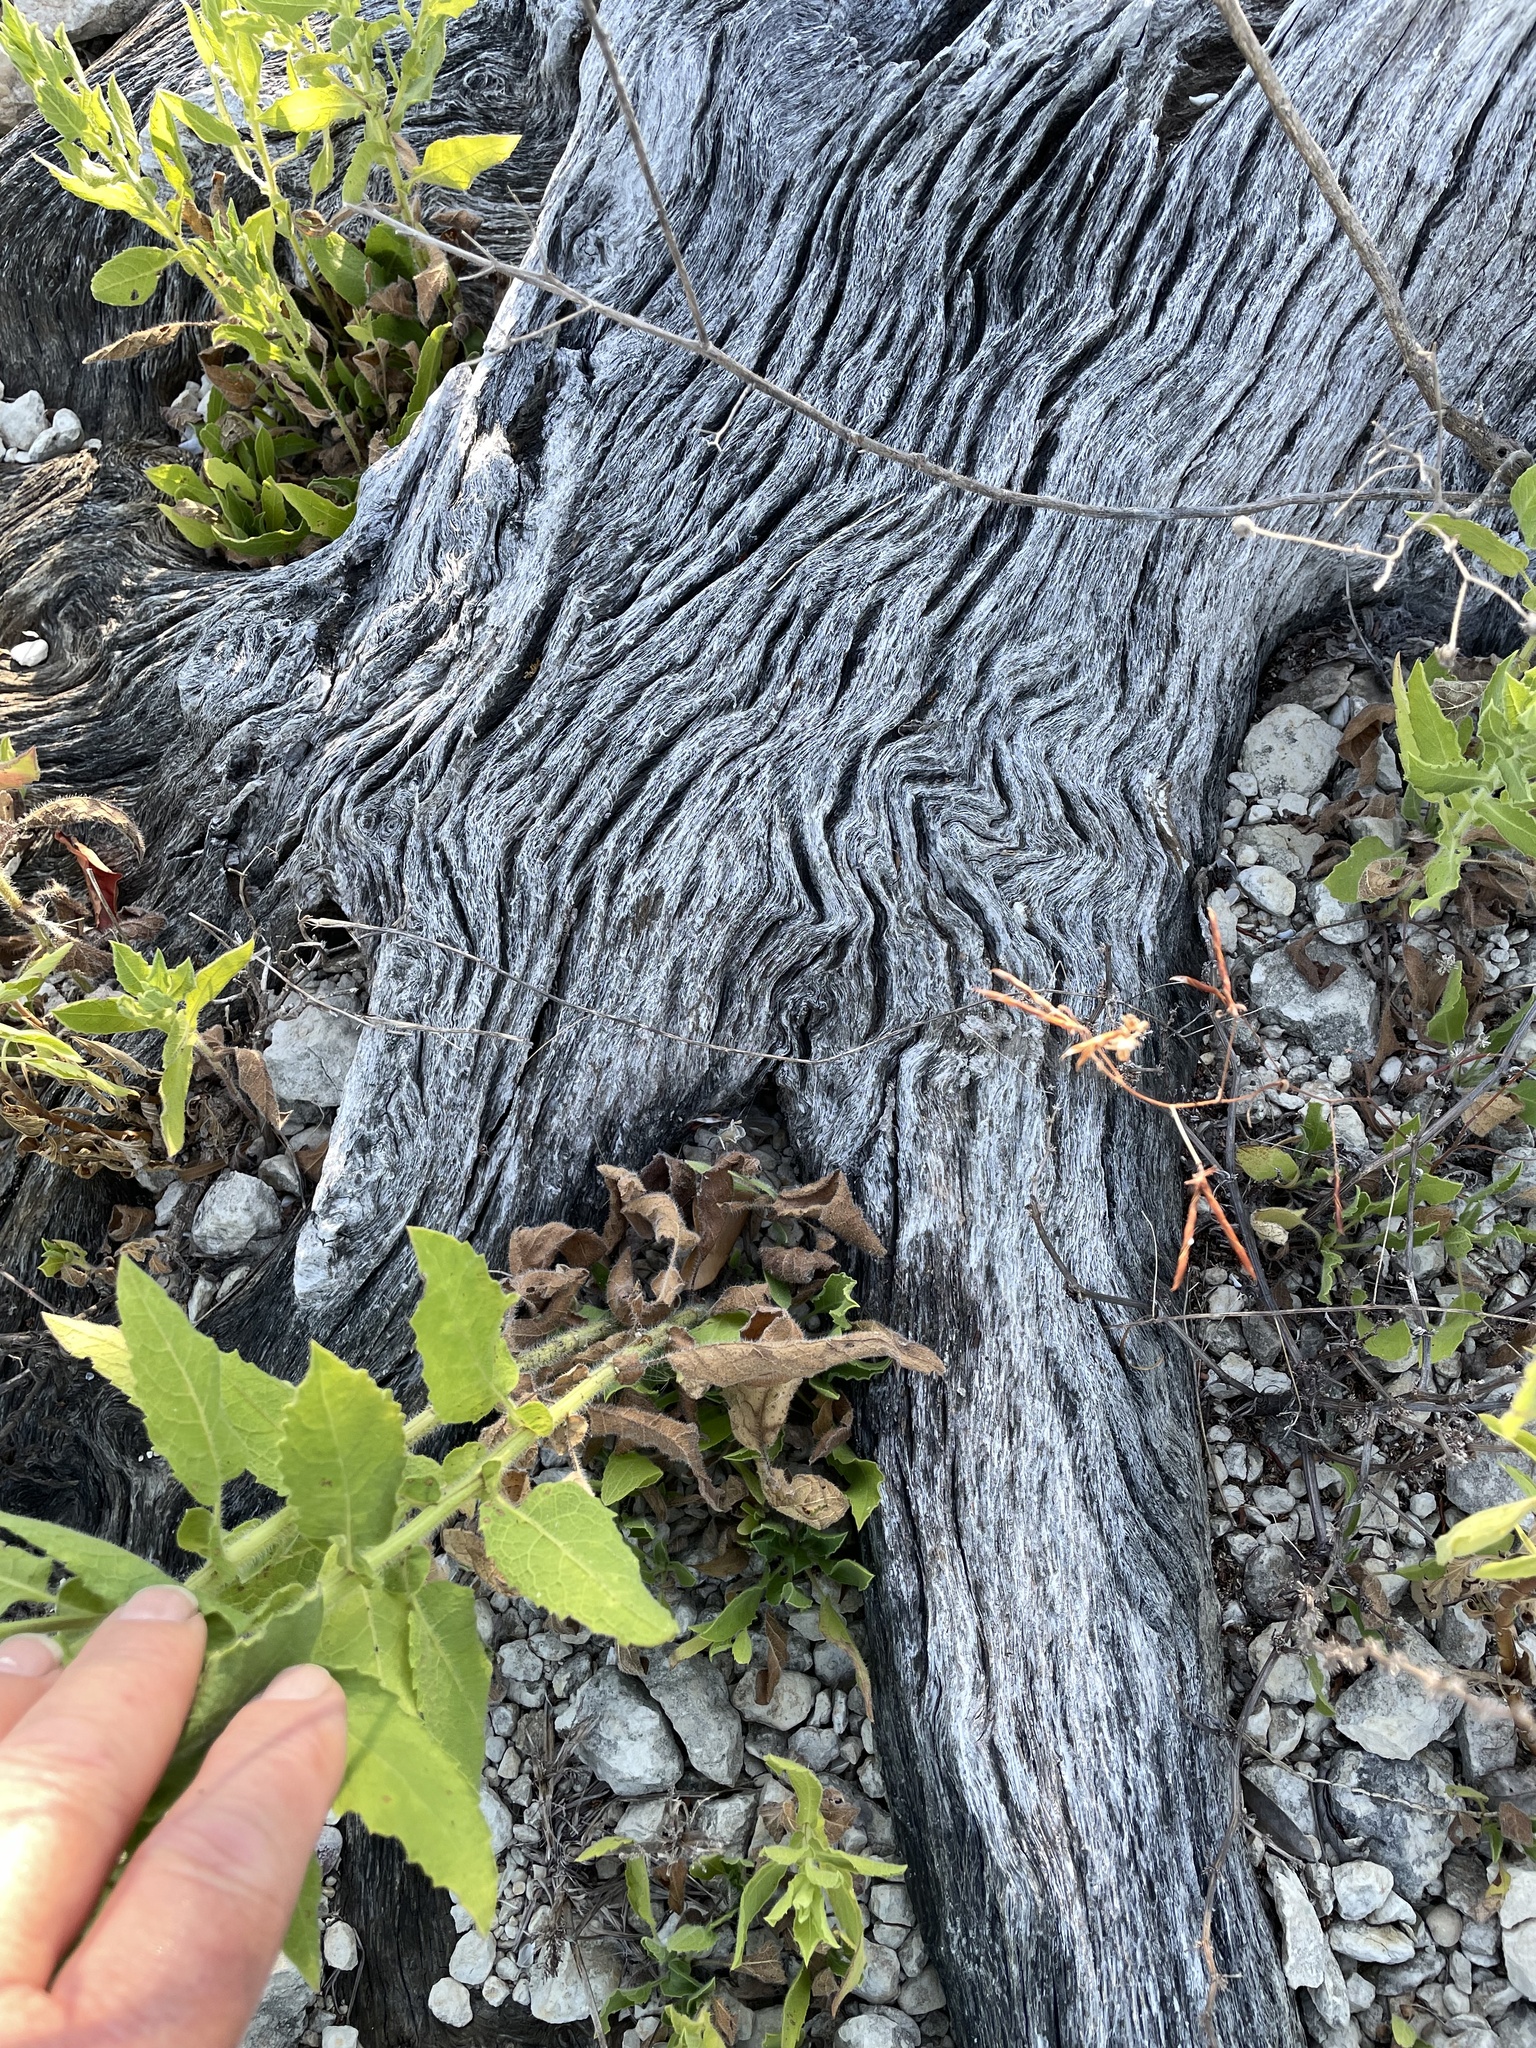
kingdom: Plantae
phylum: Tracheophyta
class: Magnoliopsida
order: Fagales
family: Fagaceae
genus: Quercus
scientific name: Quercus fusiformis
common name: Texas live oak
